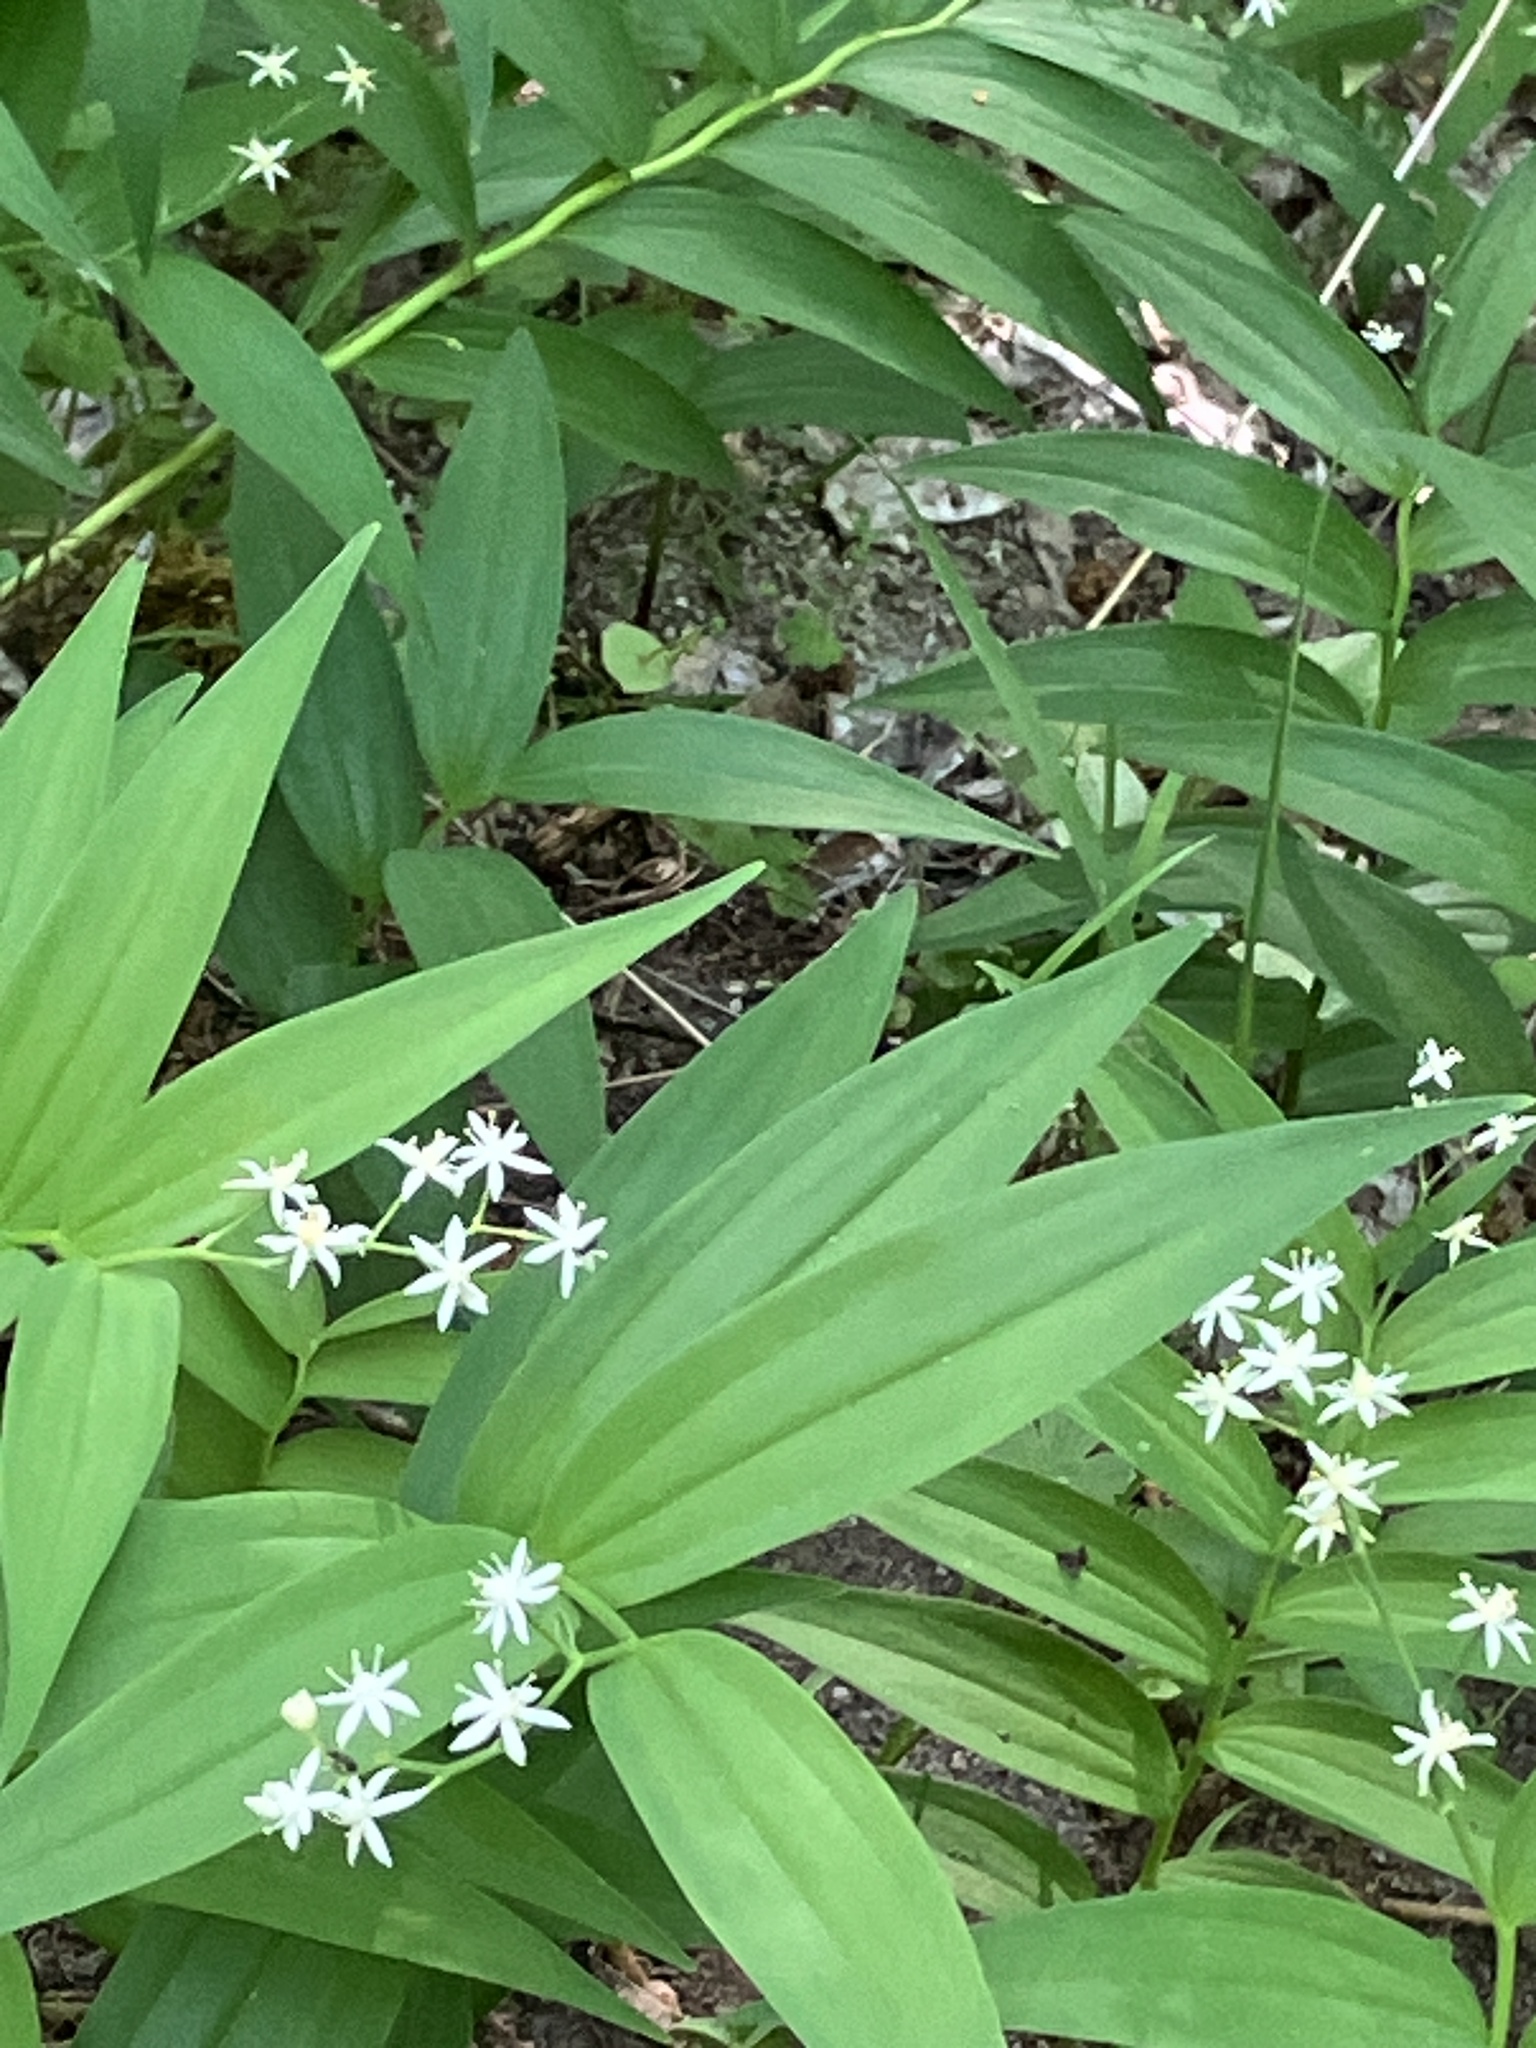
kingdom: Plantae
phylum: Tracheophyta
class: Liliopsida
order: Asparagales
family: Asparagaceae
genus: Maianthemum
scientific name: Maianthemum stellatum
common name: Little false solomon's seal
